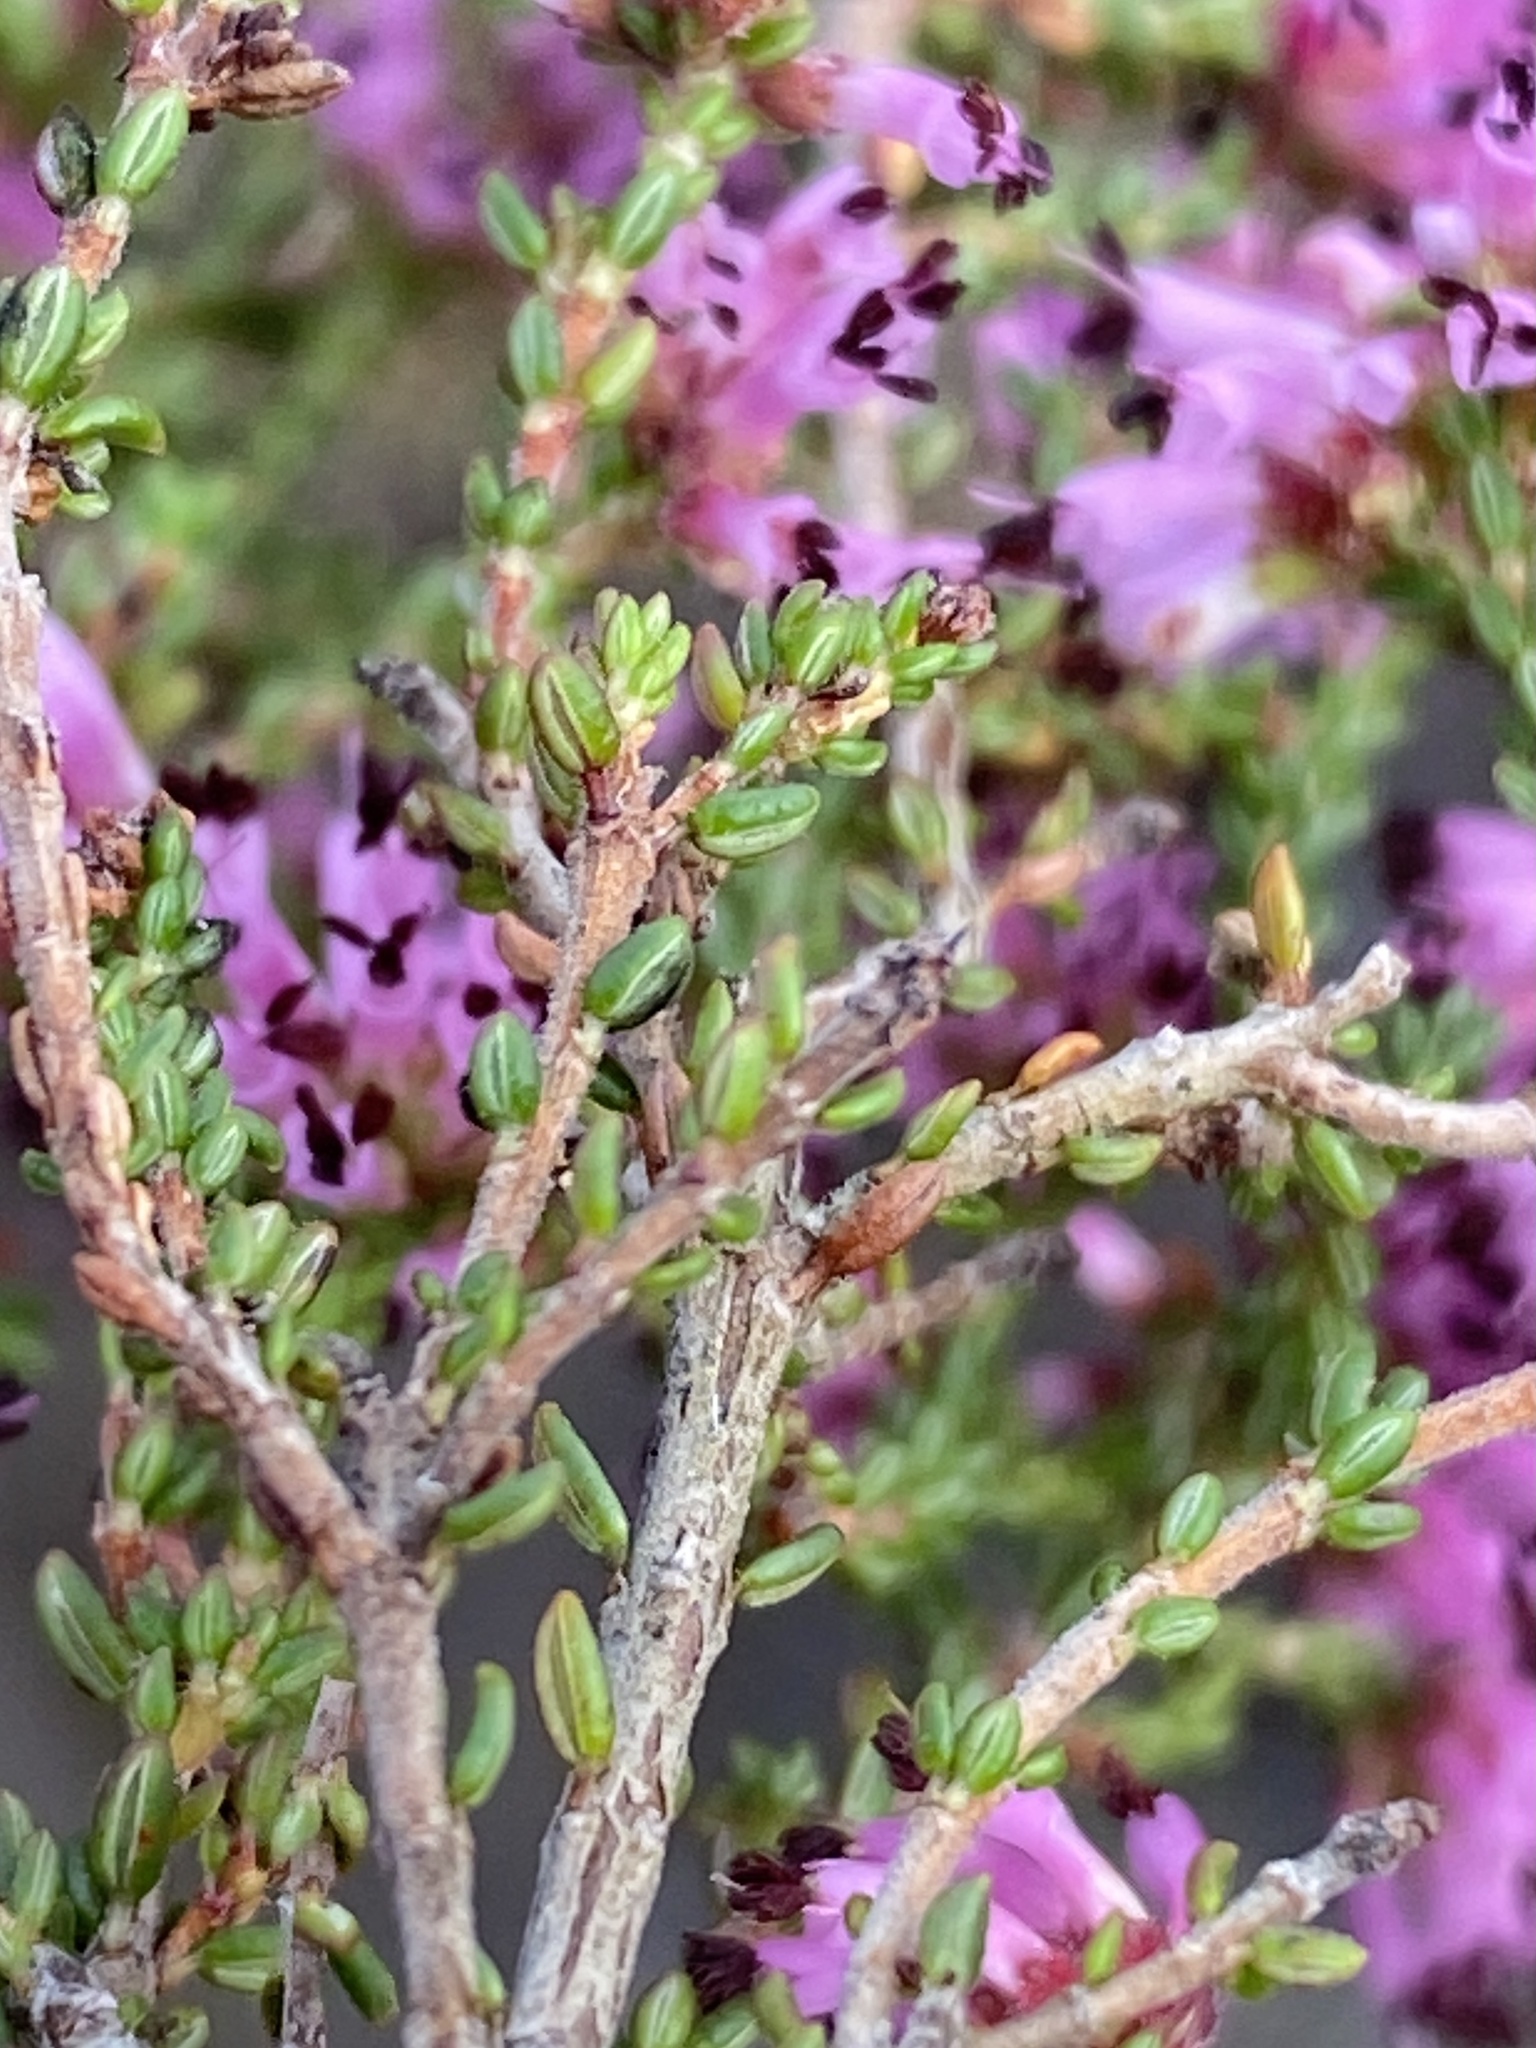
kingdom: Plantae
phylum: Tracheophyta
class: Magnoliopsida
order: Ericales
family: Ericaceae
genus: Erica
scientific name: Erica dispar
